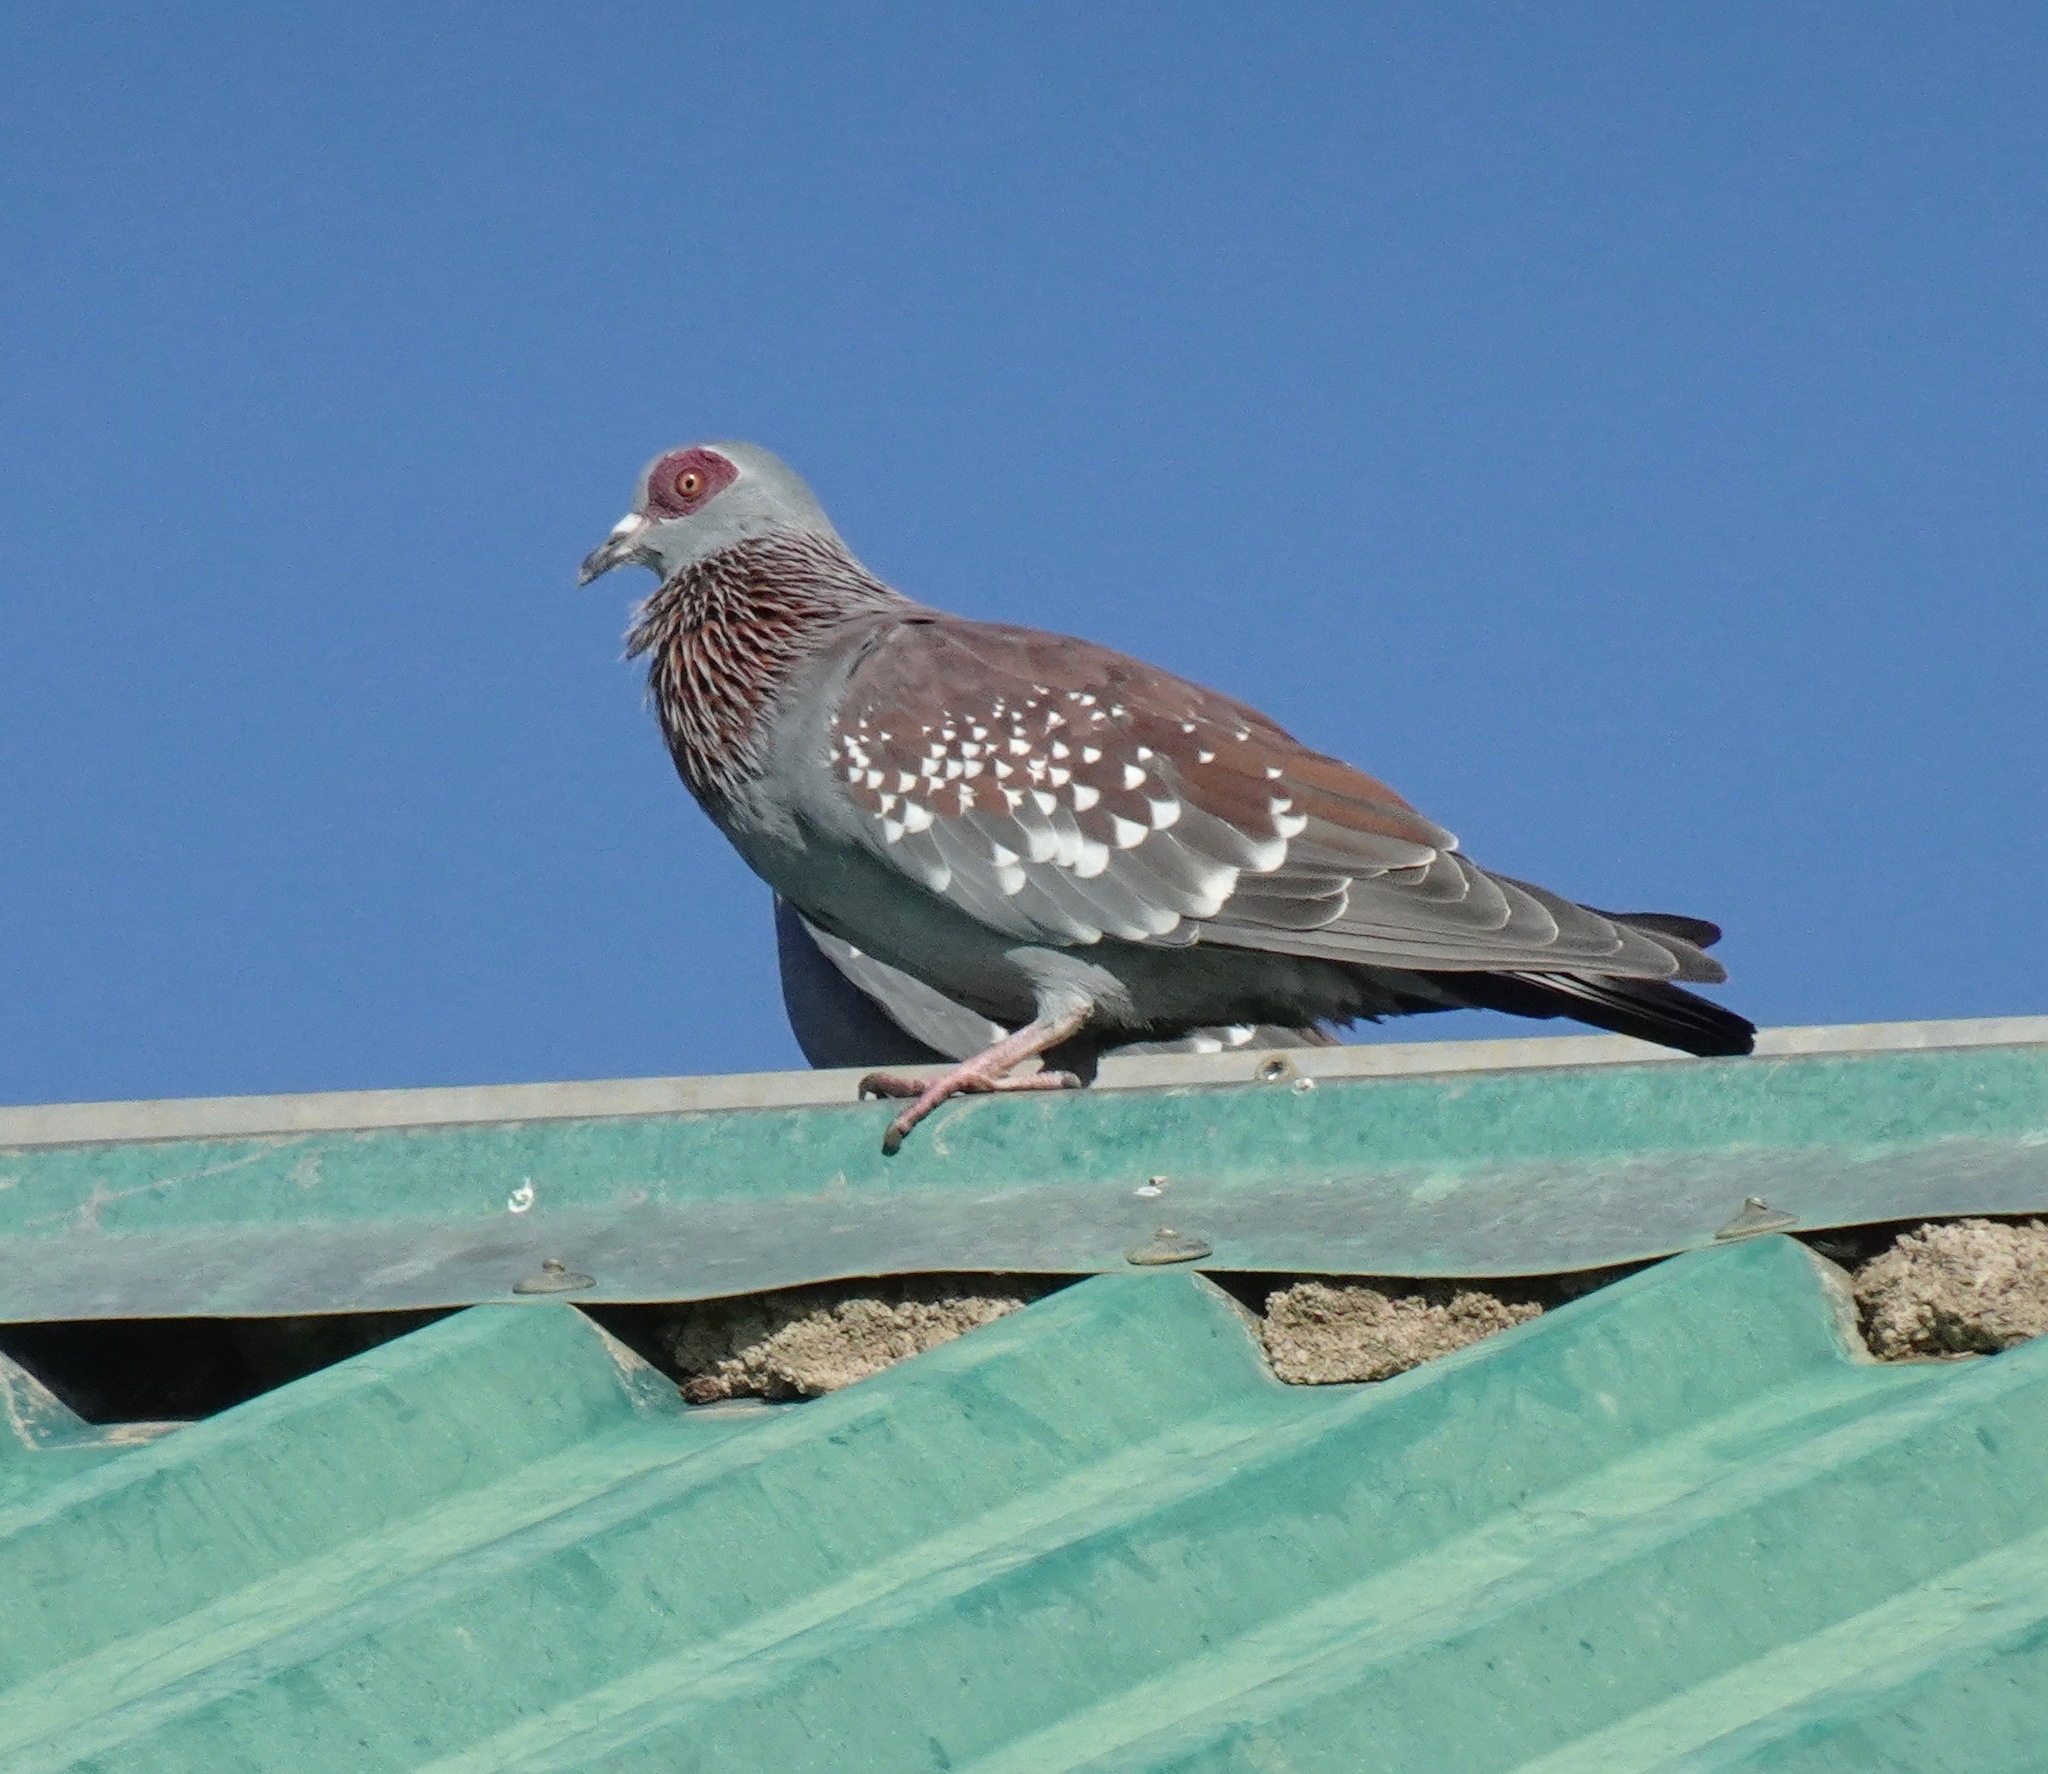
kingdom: Animalia
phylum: Chordata
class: Aves
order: Columbiformes
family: Columbidae
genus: Columba
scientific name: Columba guinea
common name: Speckled pigeon
